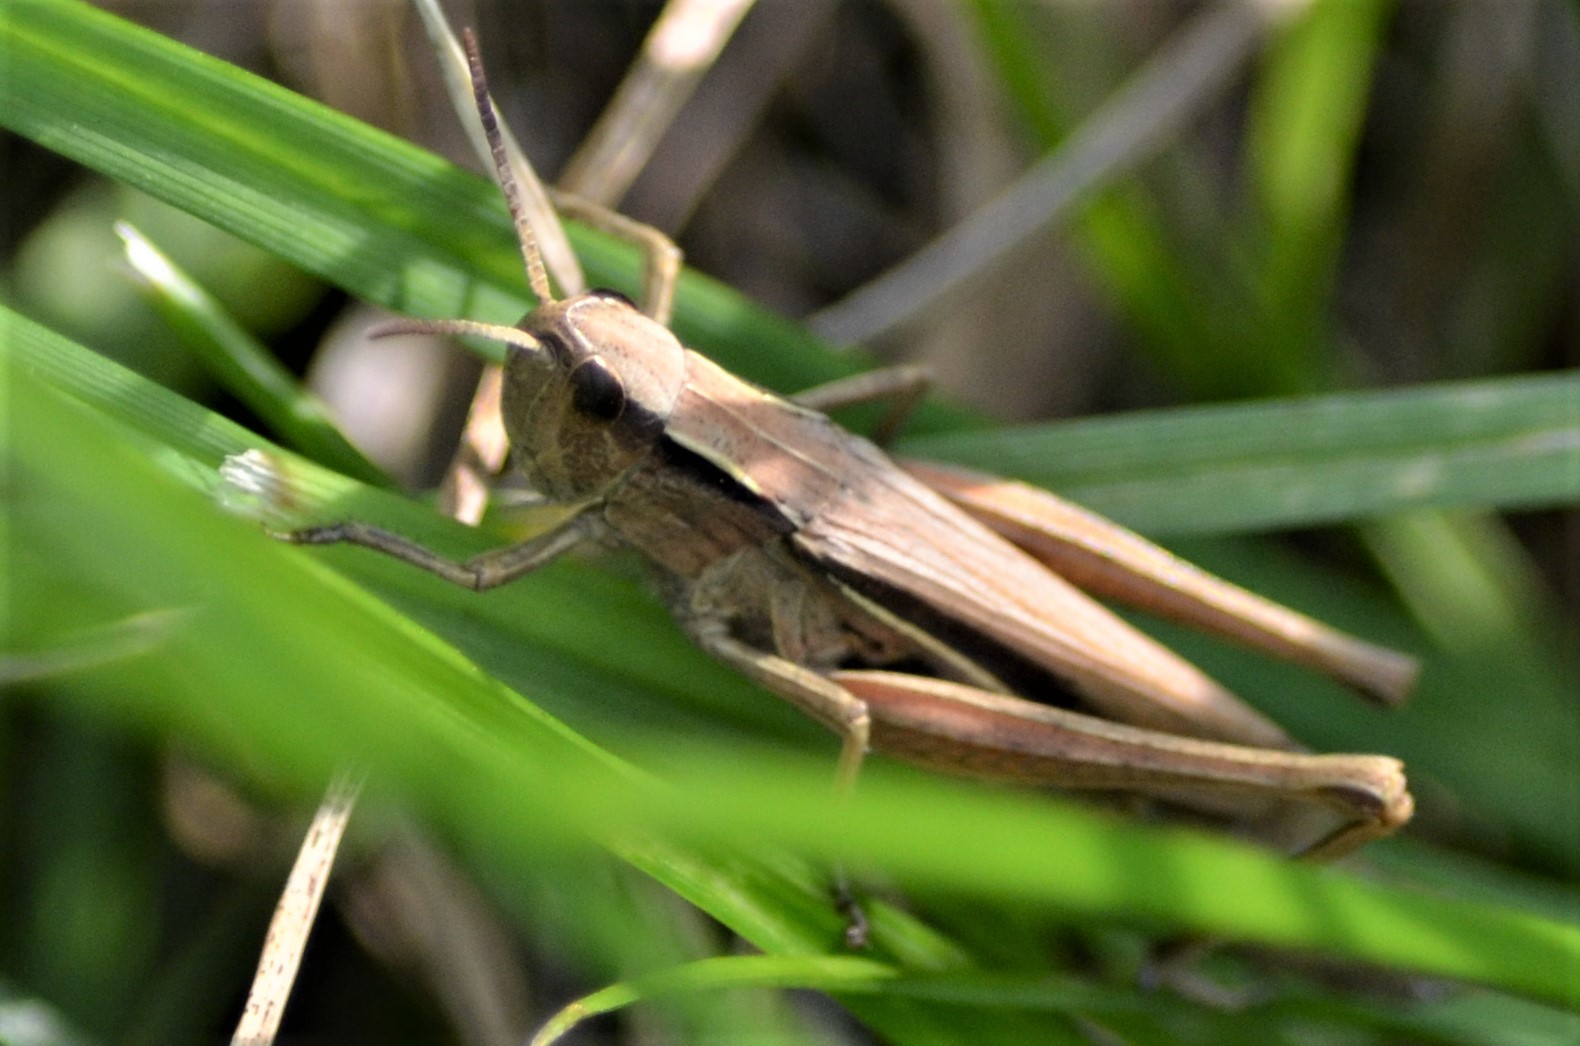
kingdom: Animalia
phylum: Arthropoda
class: Insecta
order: Orthoptera
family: Acrididae
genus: Chorthippus
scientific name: Chorthippus albomarginatus
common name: Lesser marsh grasshopper
